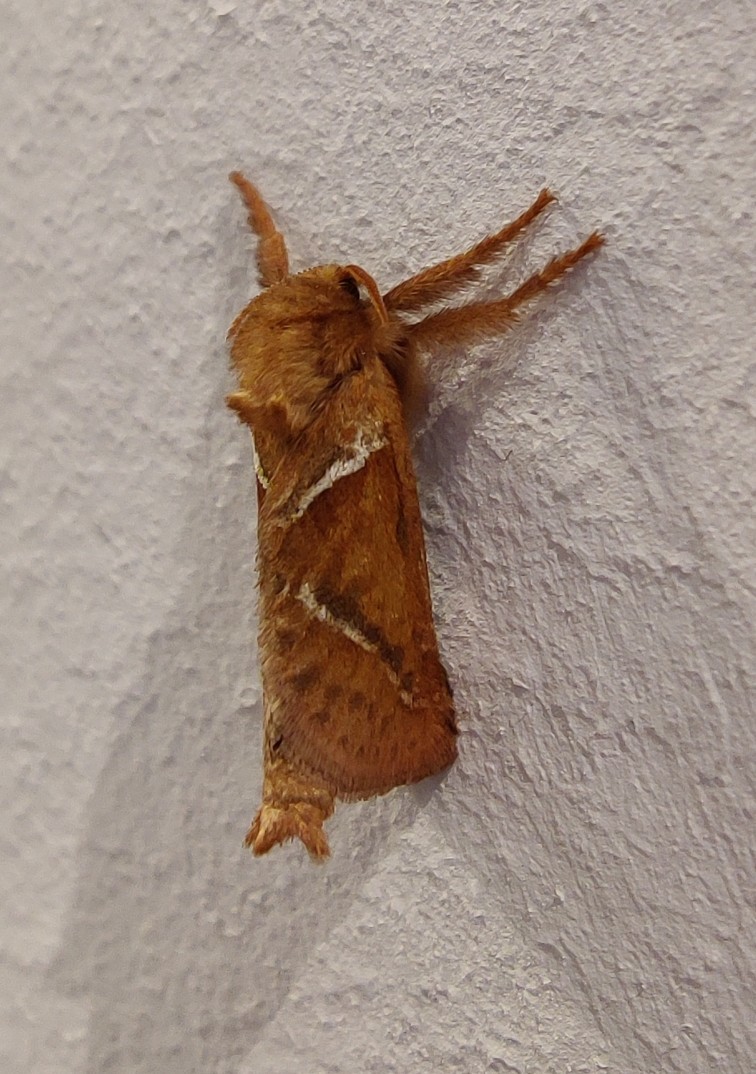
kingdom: Animalia
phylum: Arthropoda
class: Insecta
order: Lepidoptera
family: Hepialidae
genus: Triodia
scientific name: Triodia sylvina
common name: Orange swift
